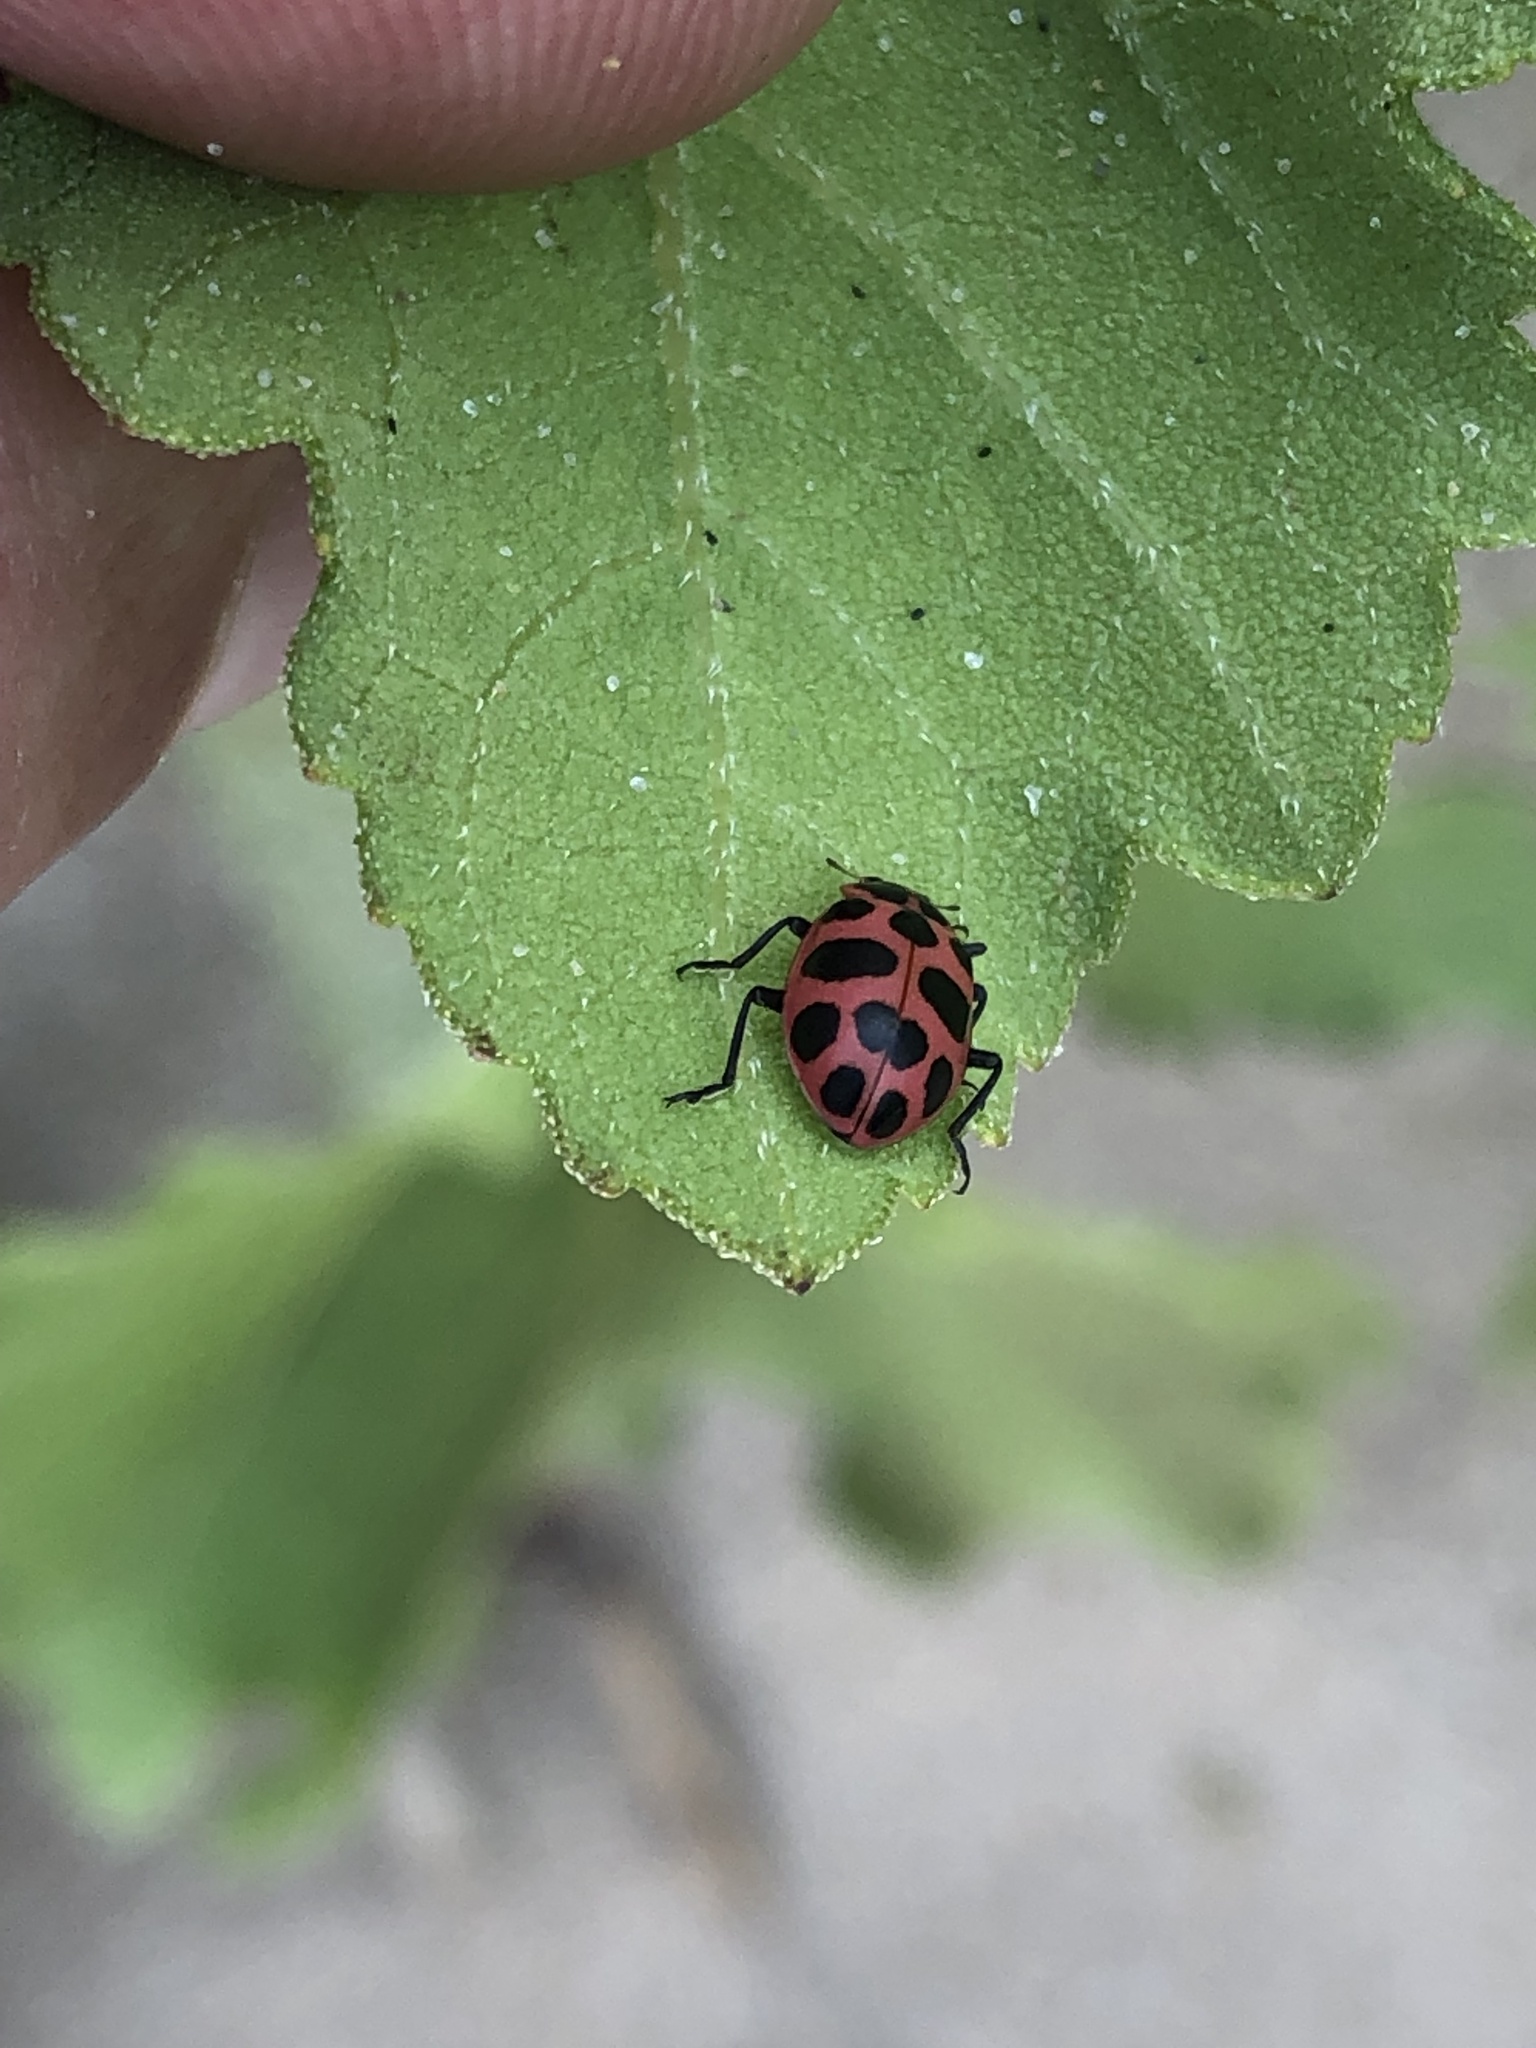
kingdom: Animalia
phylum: Arthropoda
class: Insecta
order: Coleoptera
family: Coccinellidae
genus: Coleomegilla
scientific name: Coleomegilla maculata
